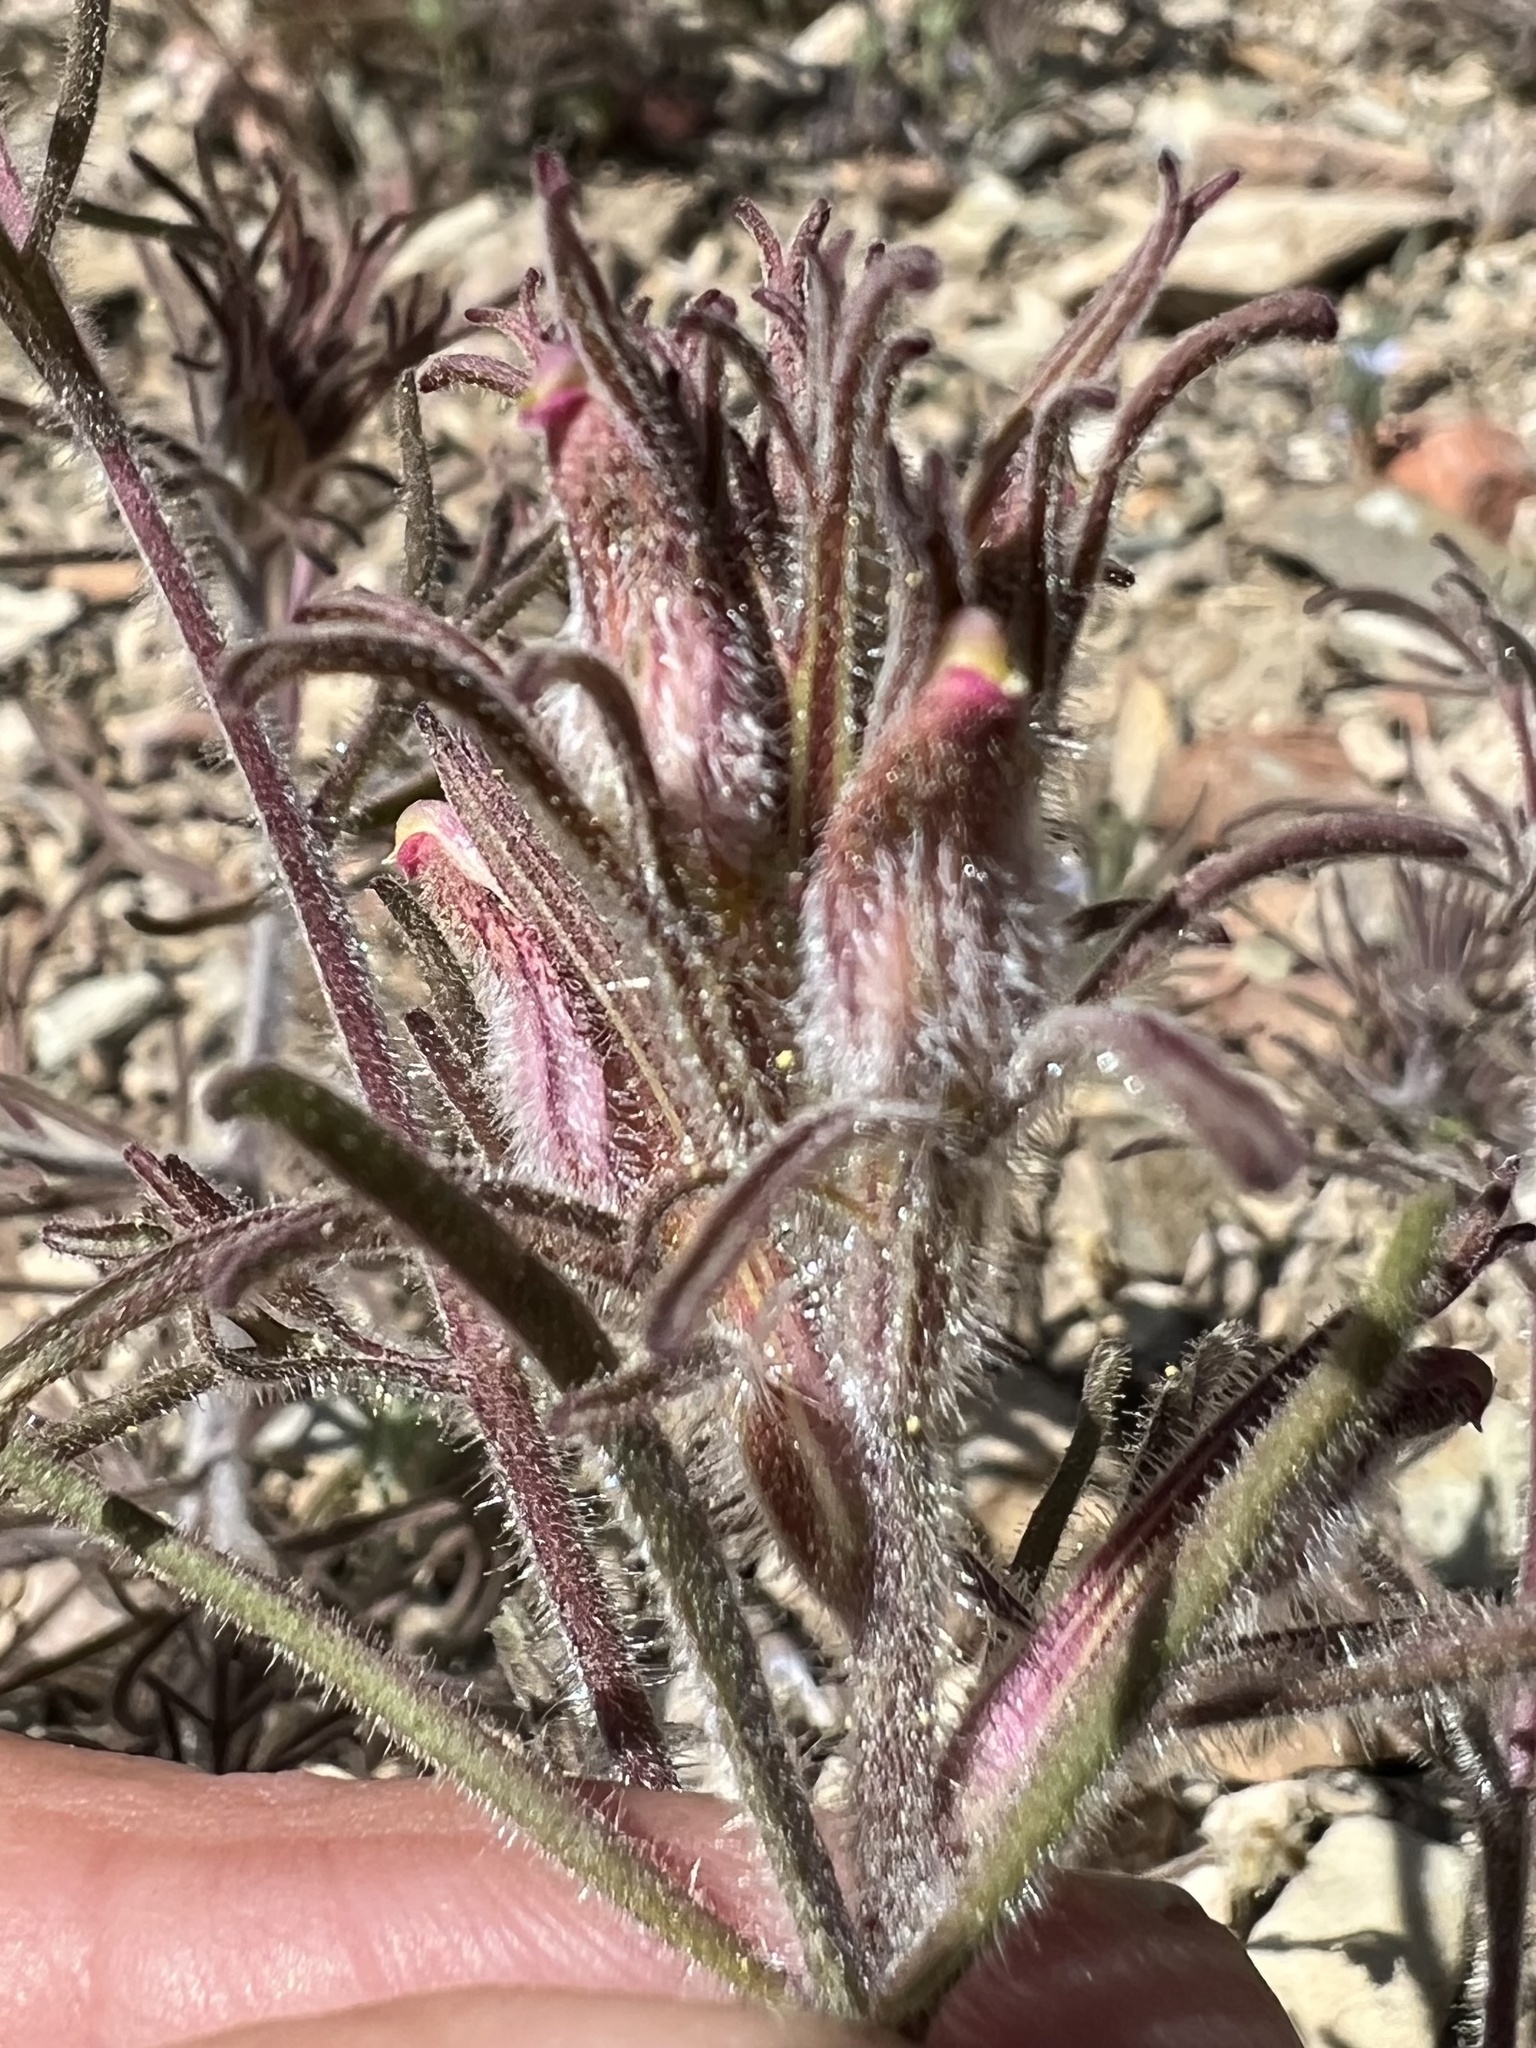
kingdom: Plantae
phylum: Tracheophyta
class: Magnoliopsida
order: Lamiales
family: Orobanchaceae
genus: Cordylanthus
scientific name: Cordylanthus kingii
